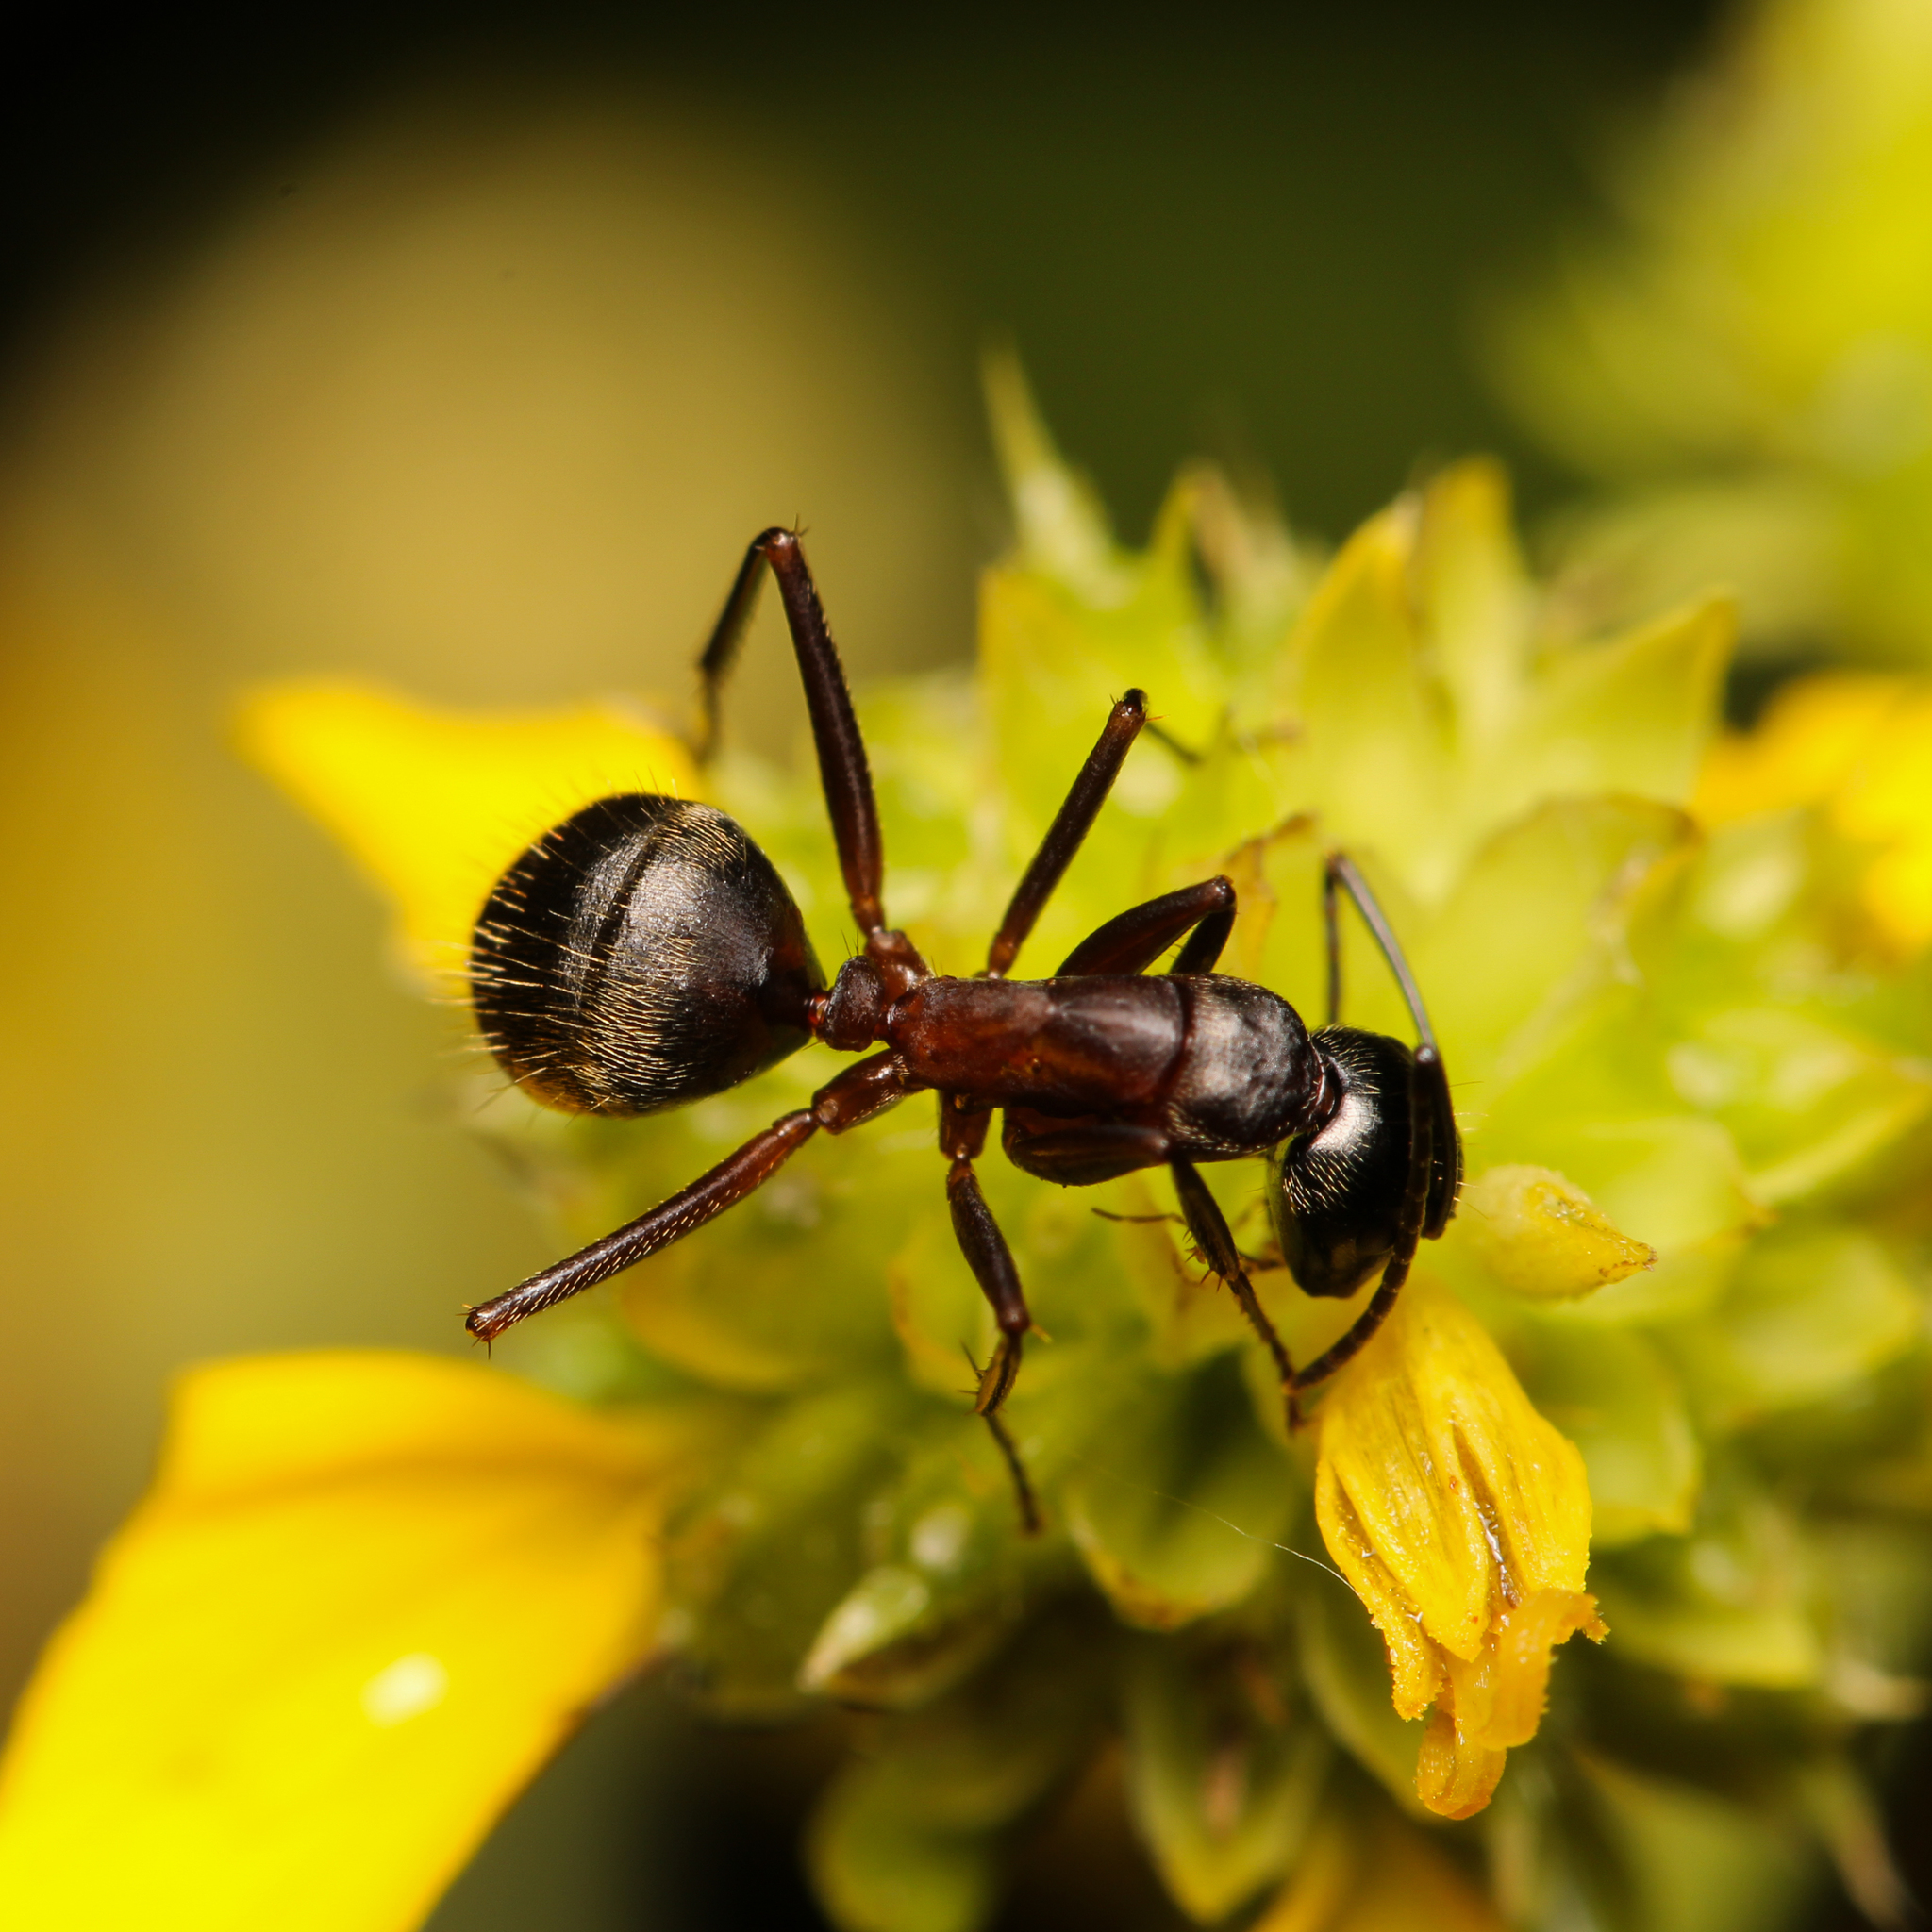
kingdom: Animalia
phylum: Arthropoda
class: Insecta
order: Hymenoptera
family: Formicidae
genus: Camponotus
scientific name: Camponotus chromaiodes
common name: Red carpenter ant
